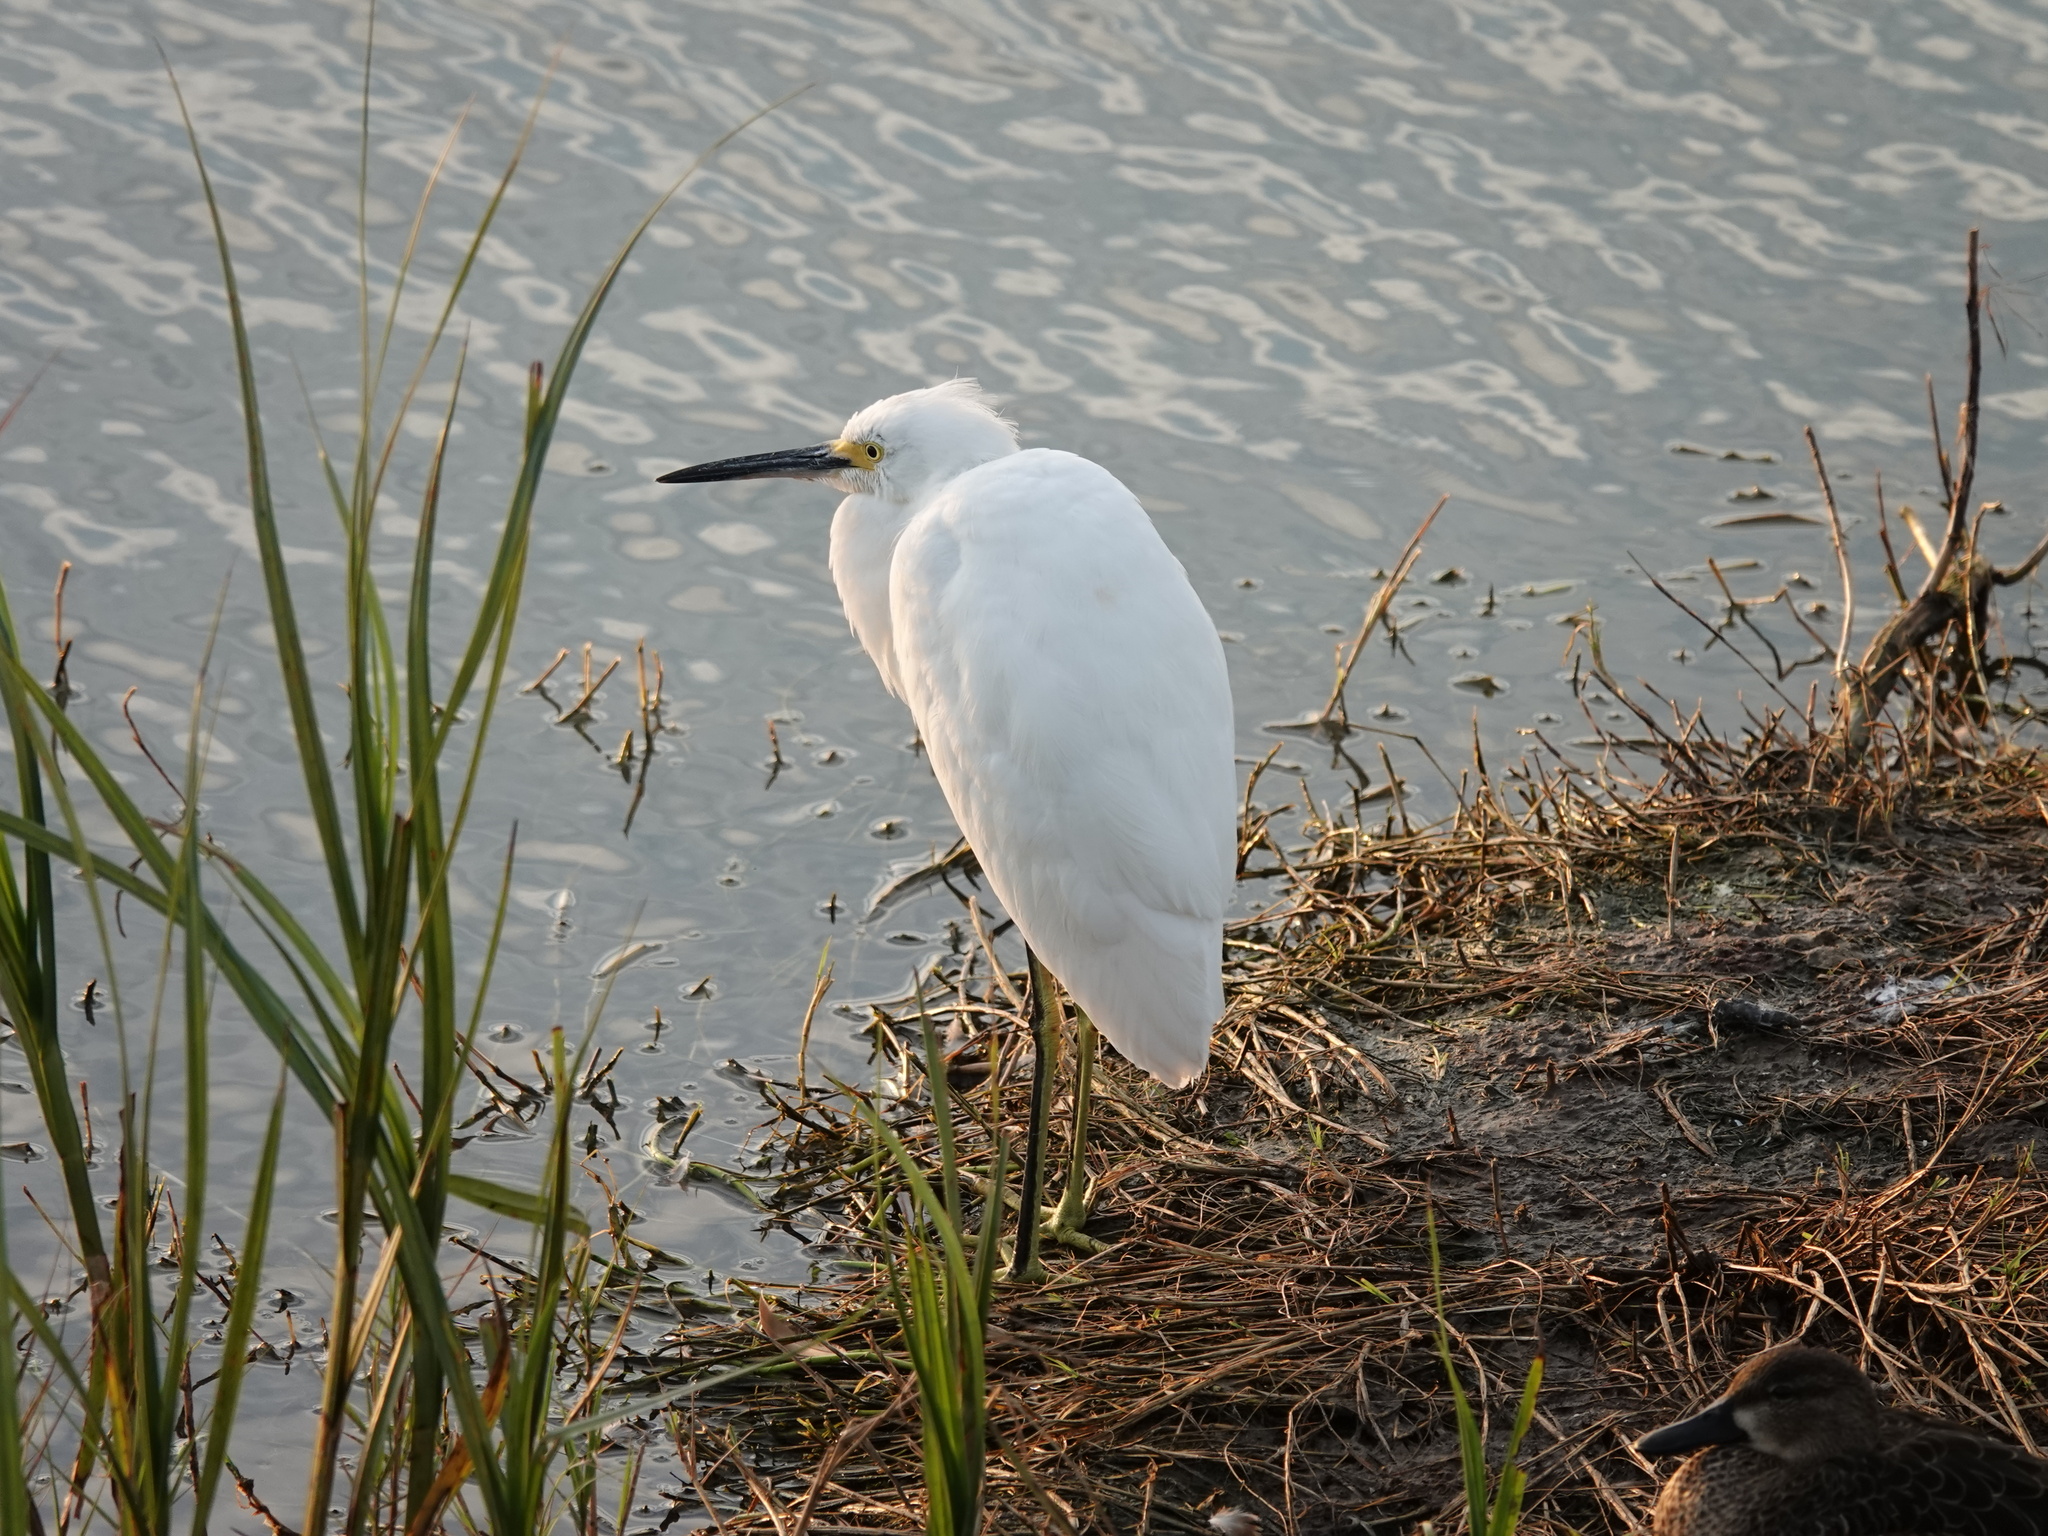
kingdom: Animalia
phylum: Chordata
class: Aves
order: Pelecaniformes
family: Ardeidae
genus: Egretta
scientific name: Egretta thula
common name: Snowy egret
